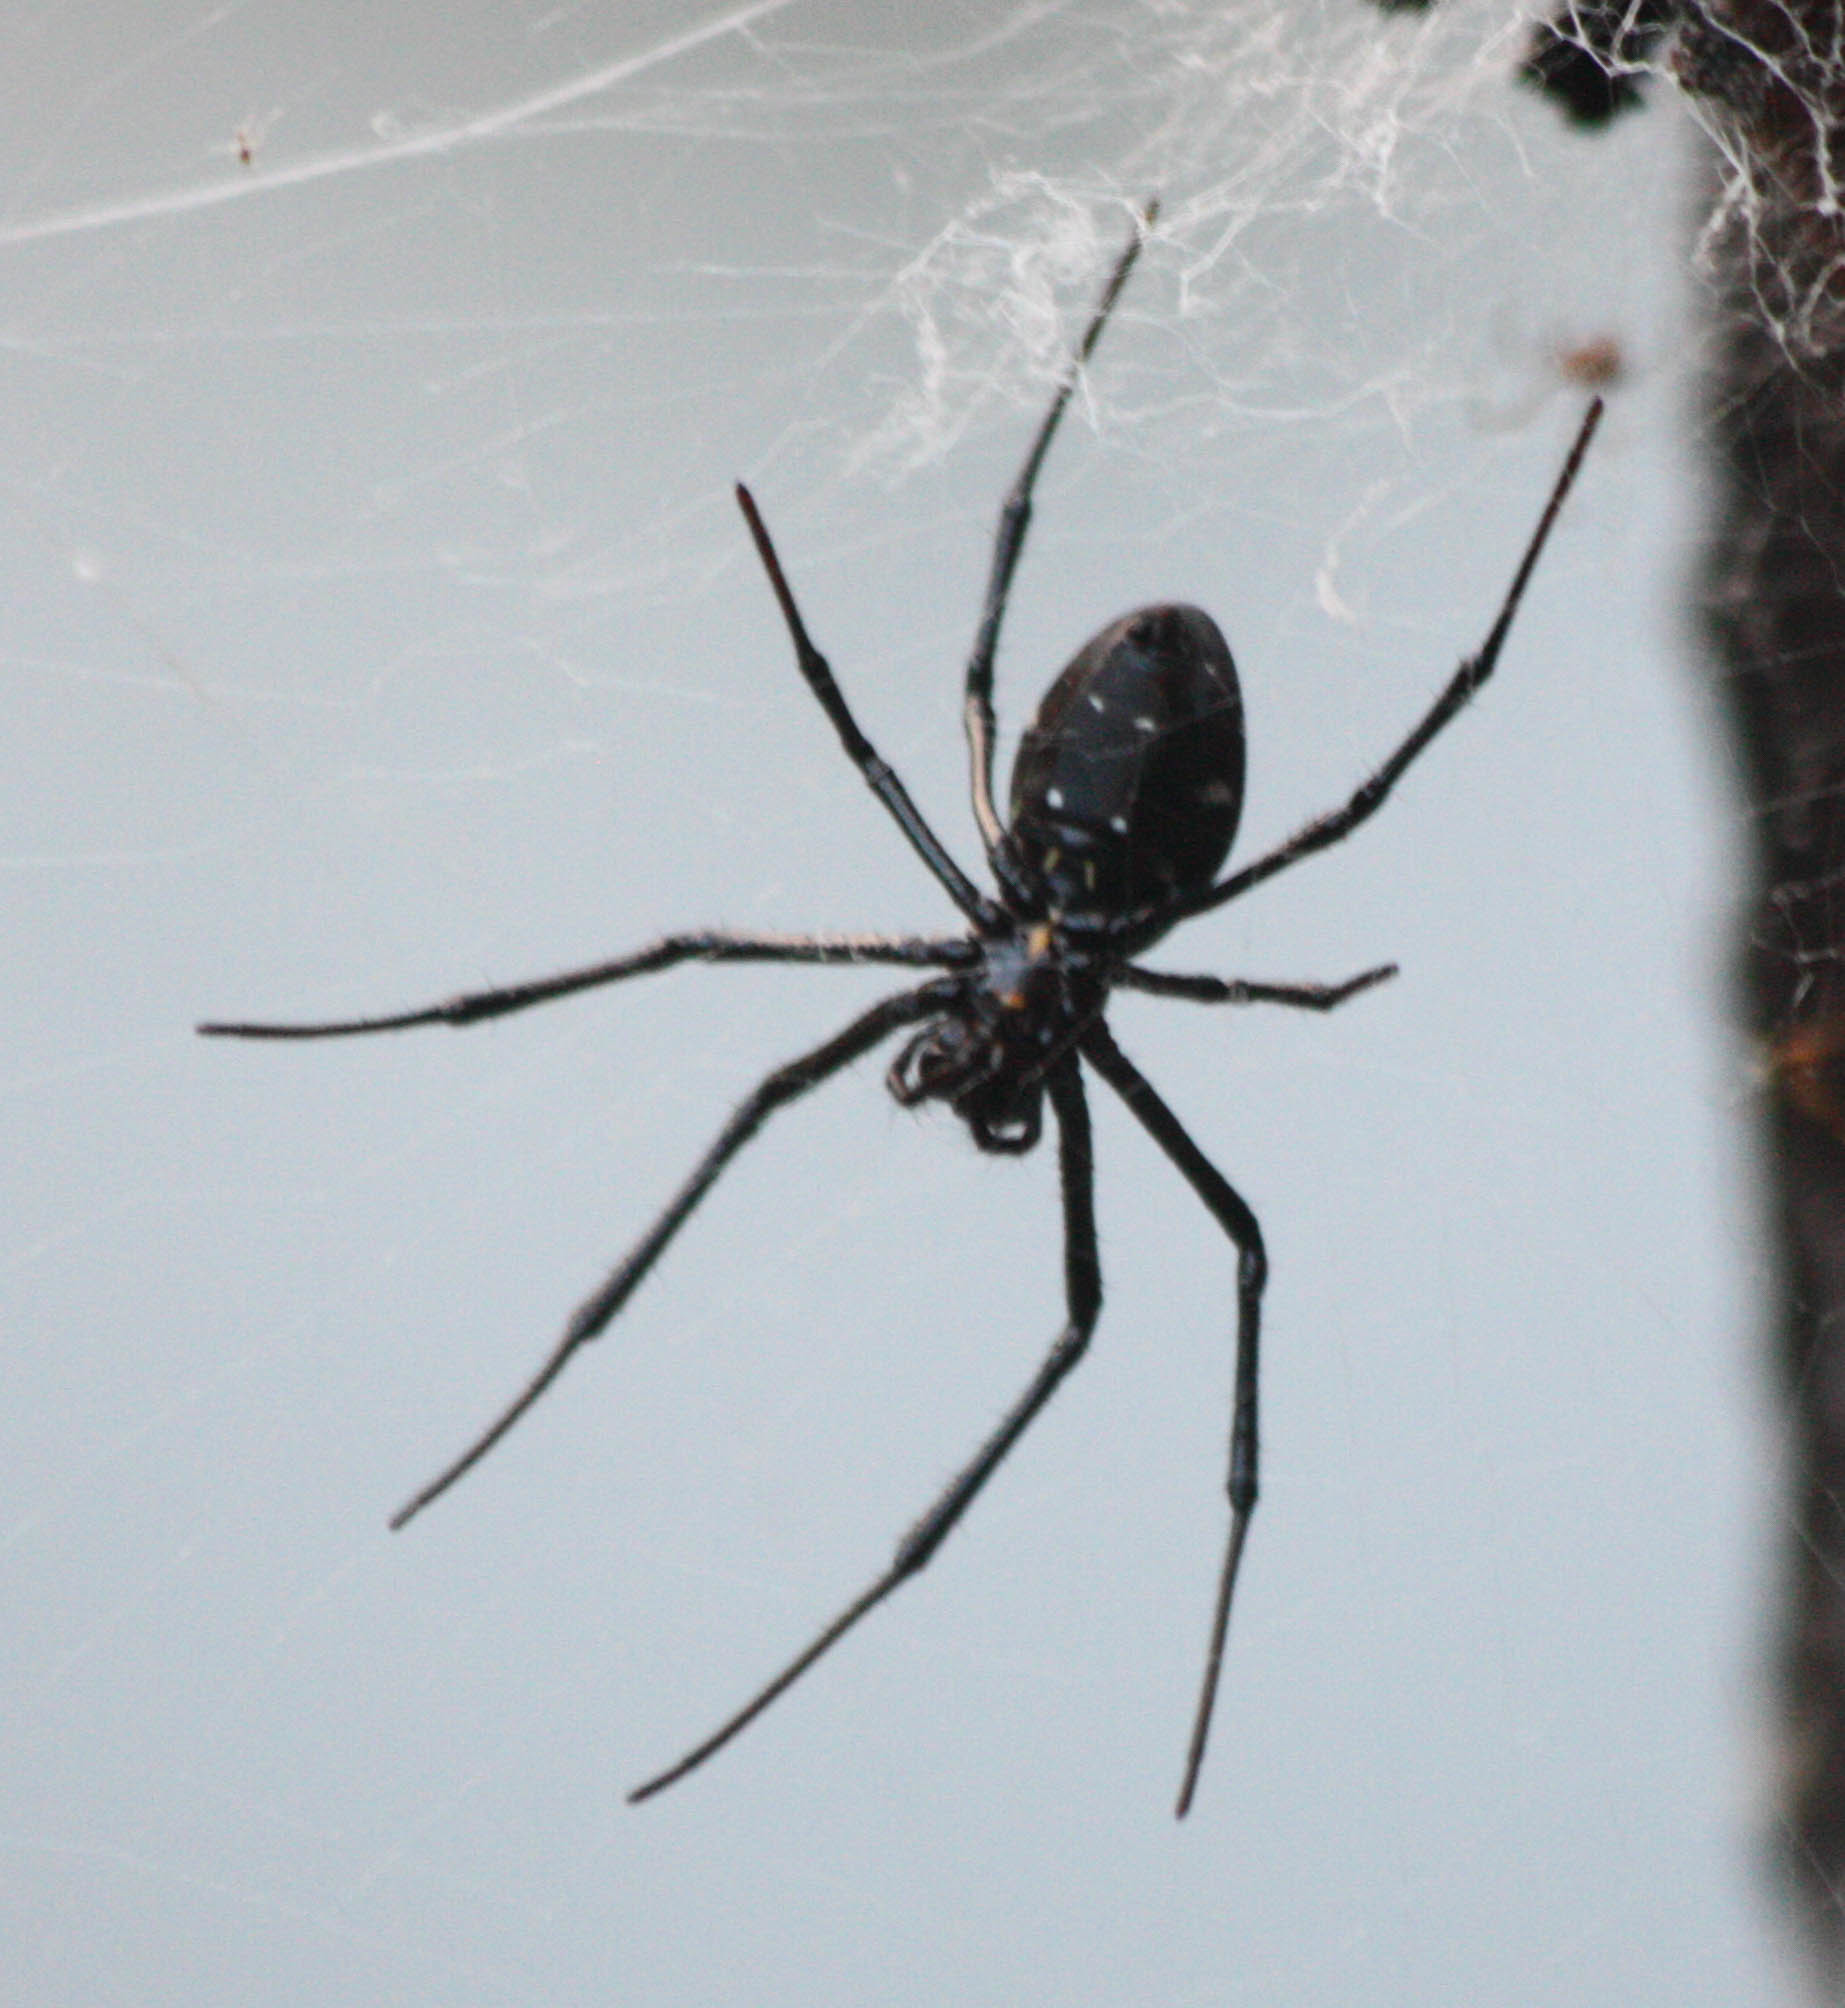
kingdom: Animalia
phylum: Arthropoda
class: Arachnida
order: Araneae
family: Araneidae
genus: Nephilingis
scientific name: Nephilingis livida
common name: Madagascar hermit spider
